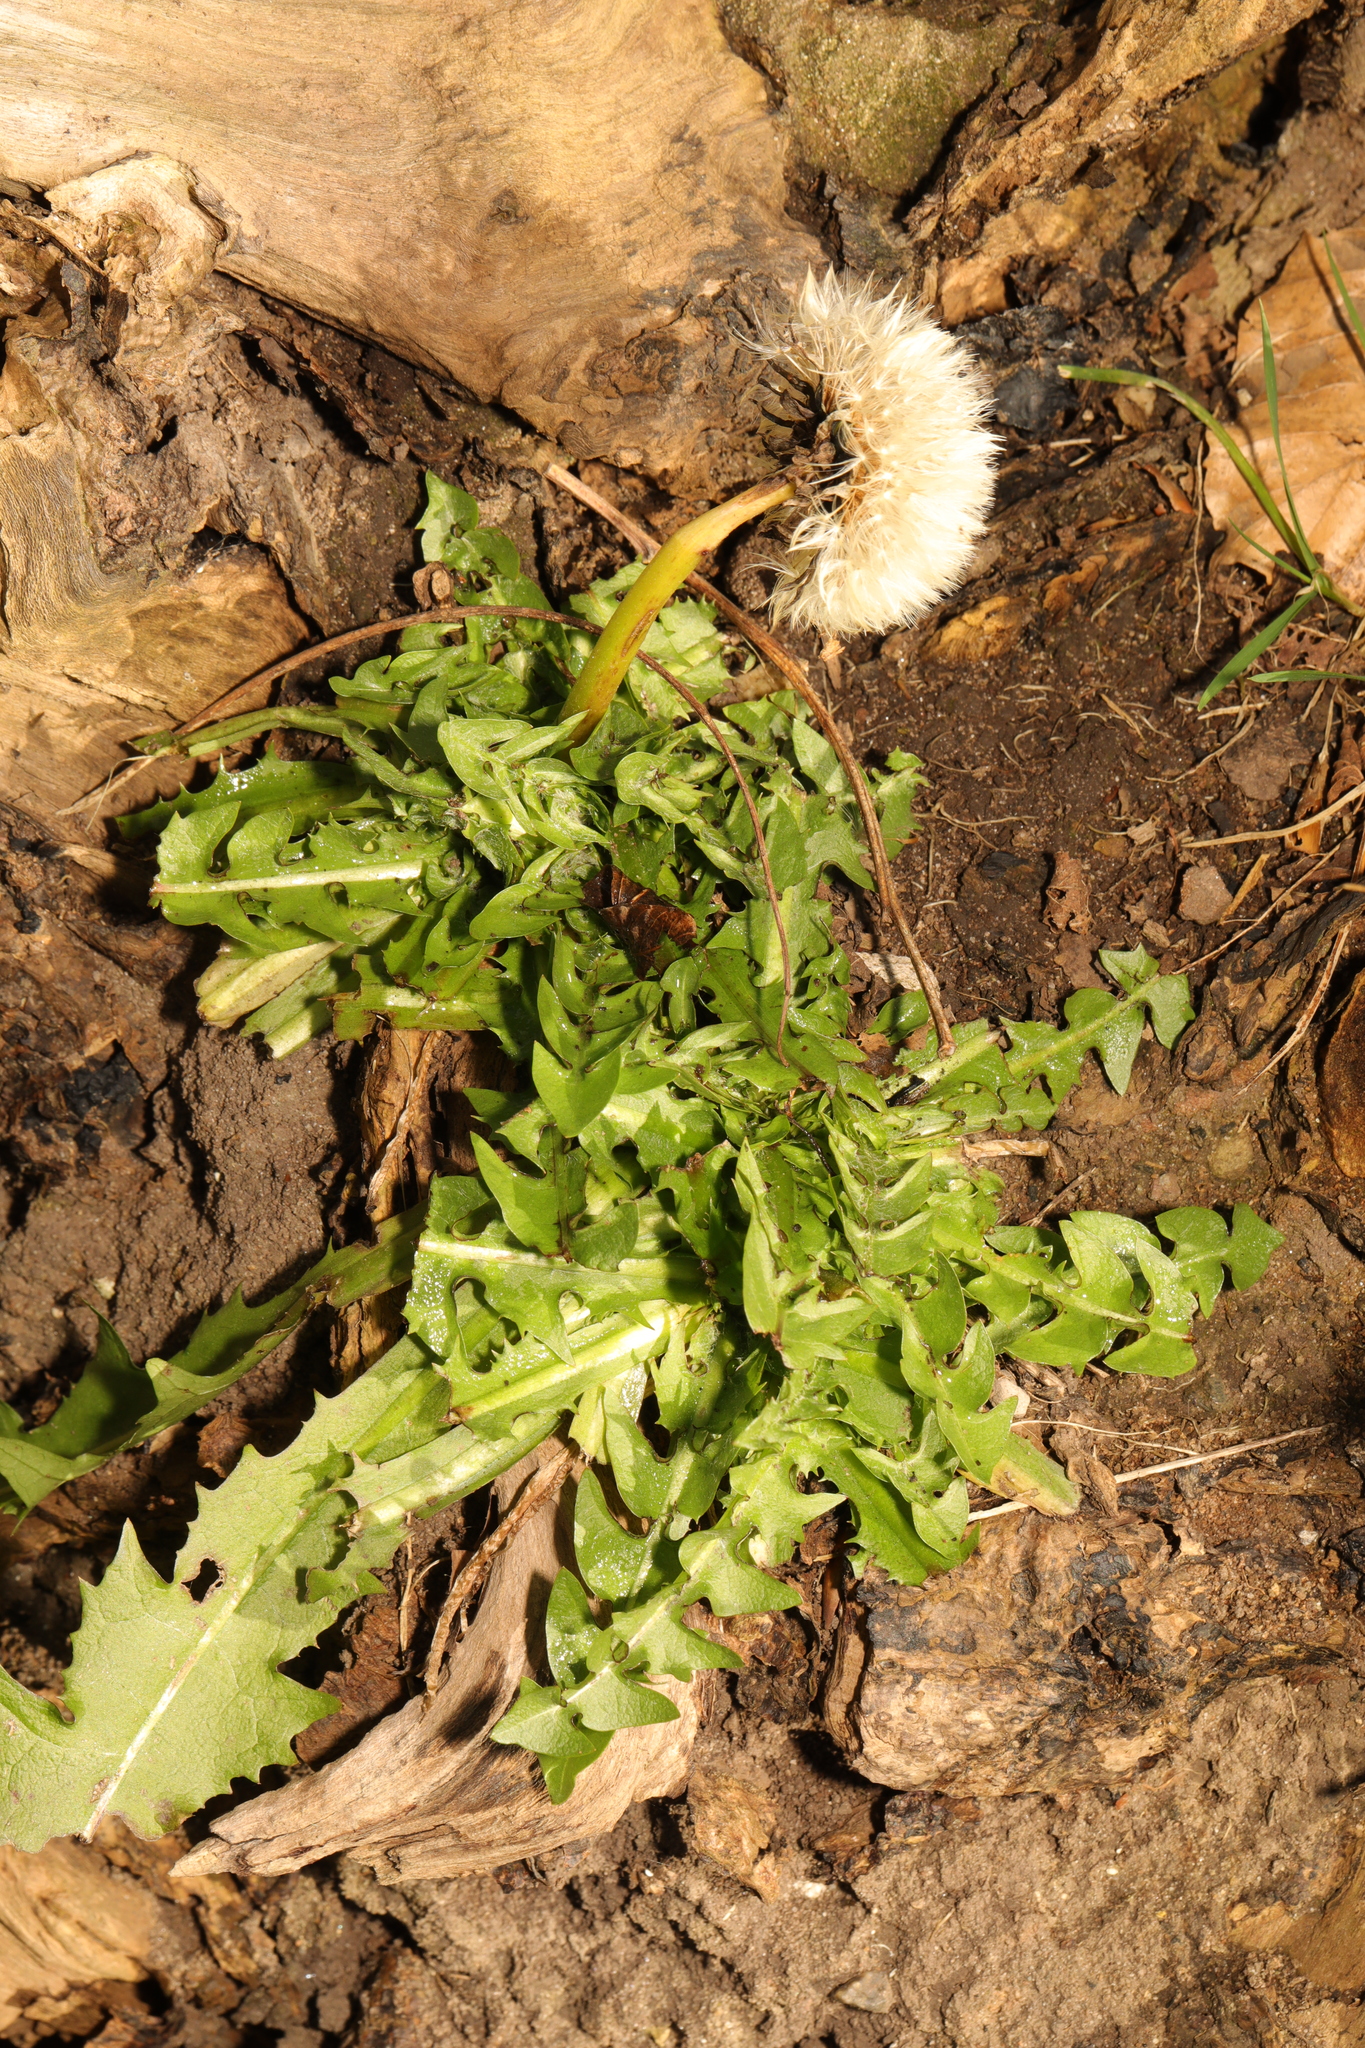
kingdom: Plantae
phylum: Tracheophyta
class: Magnoliopsida
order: Asterales
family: Asteraceae
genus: Taraxacum
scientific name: Taraxacum officinale
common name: Common dandelion
